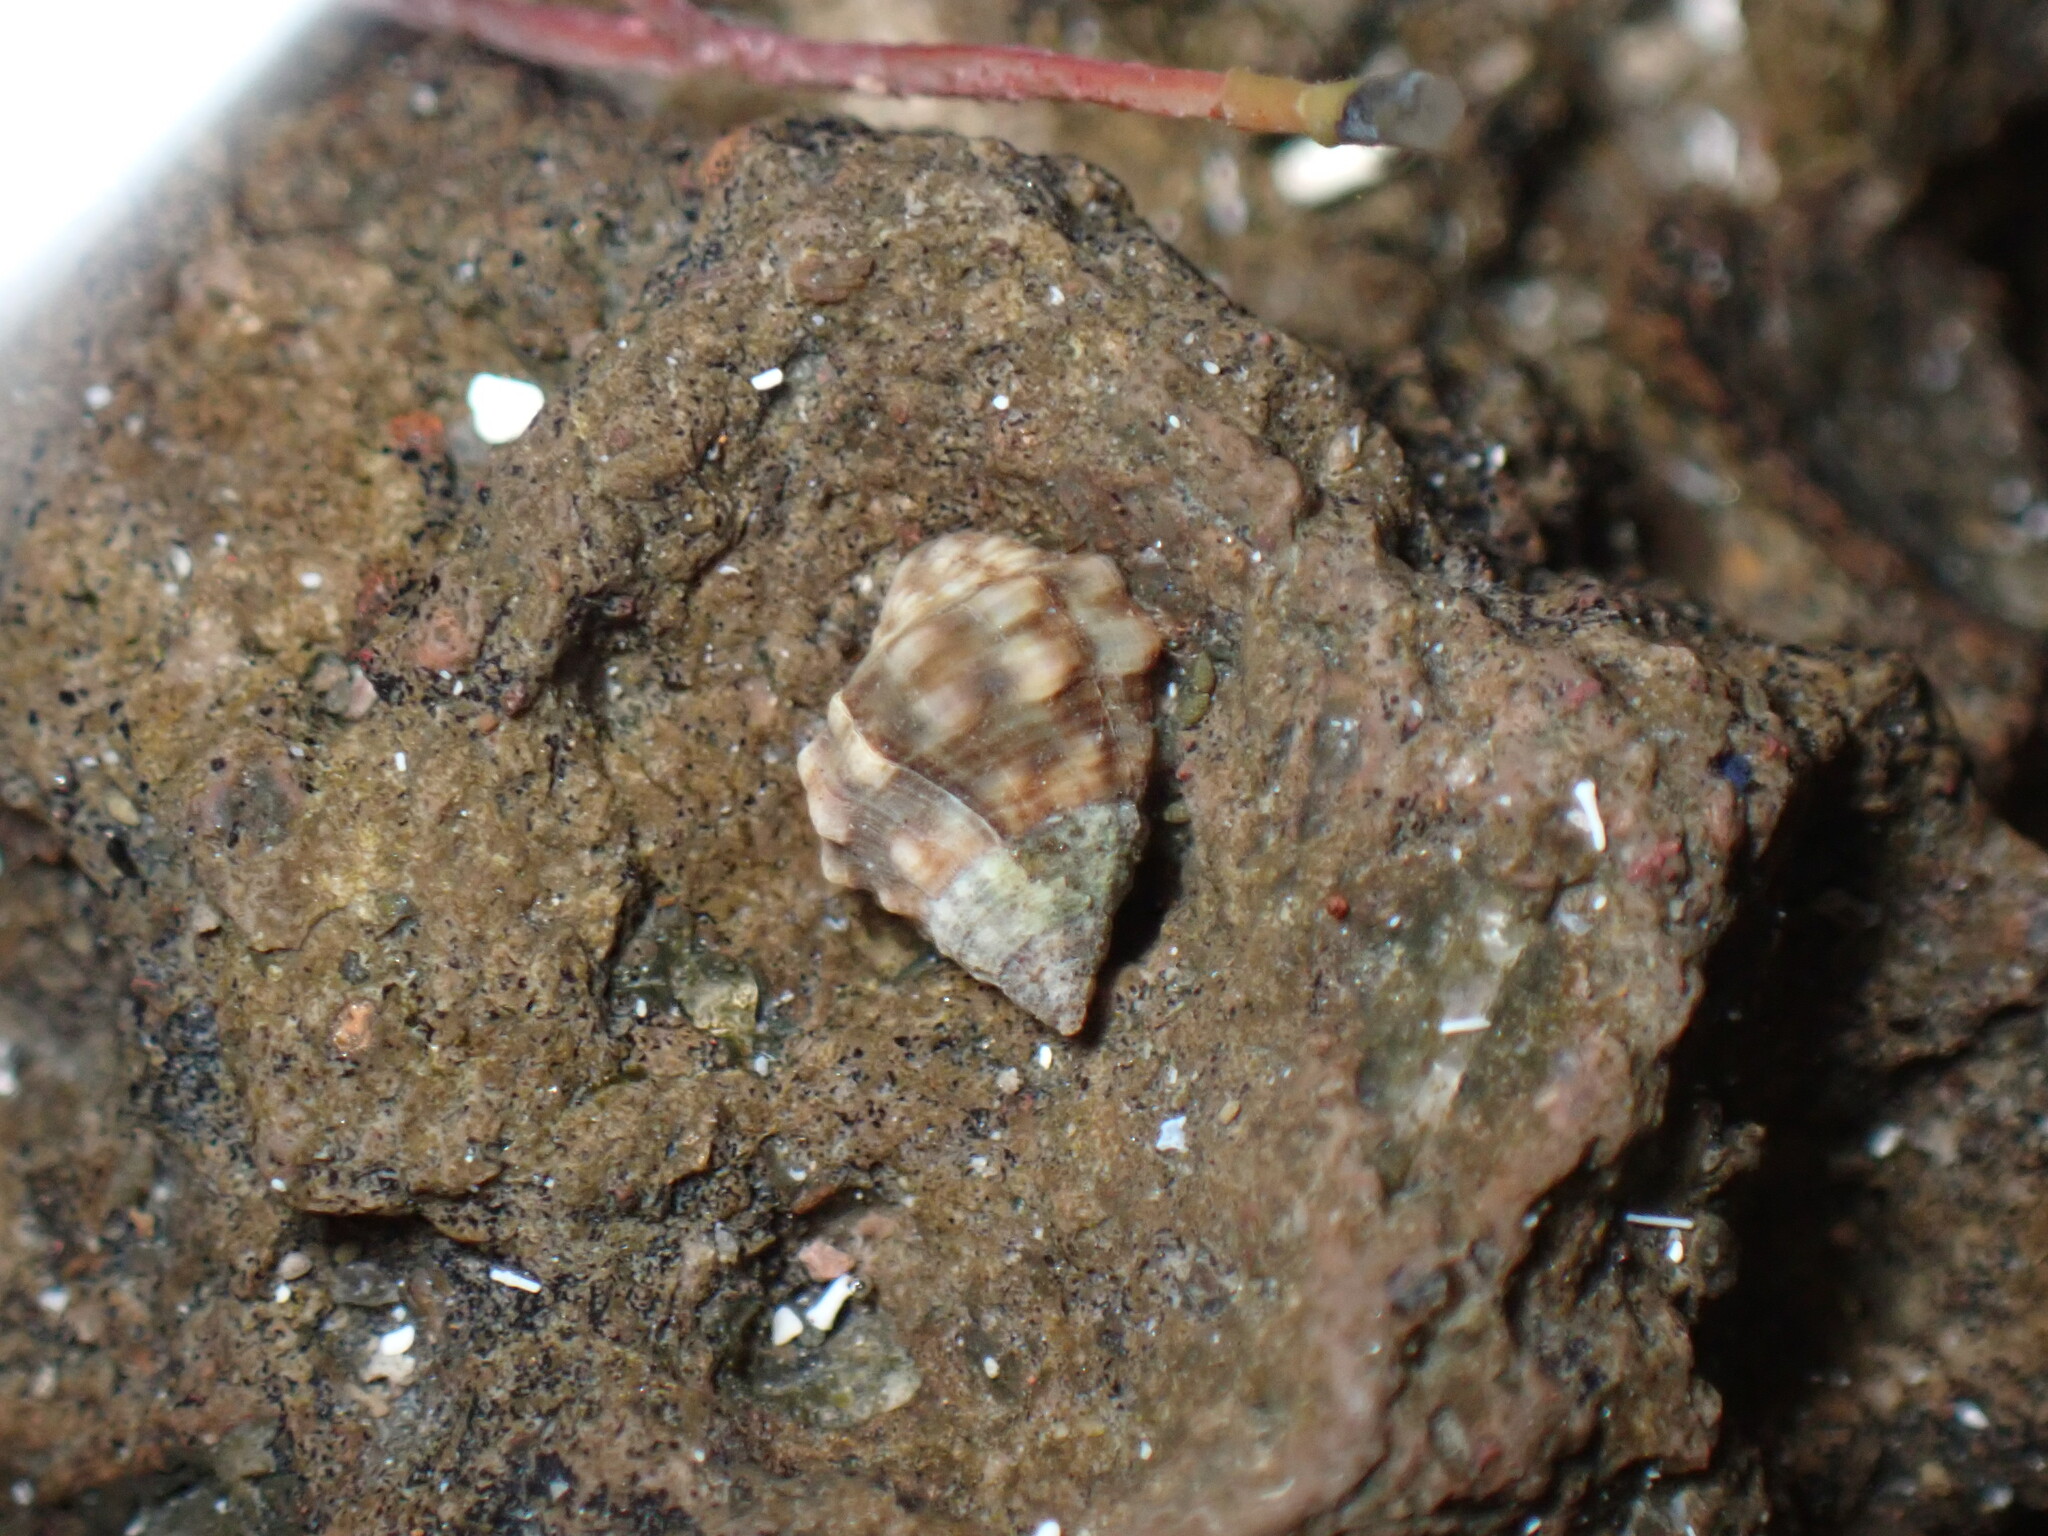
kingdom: Animalia
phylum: Mollusca
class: Gastropoda
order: Neogastropoda
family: Muricidae
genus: Stramonita
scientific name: Stramonita haemastoma
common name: Florida dog winkle
